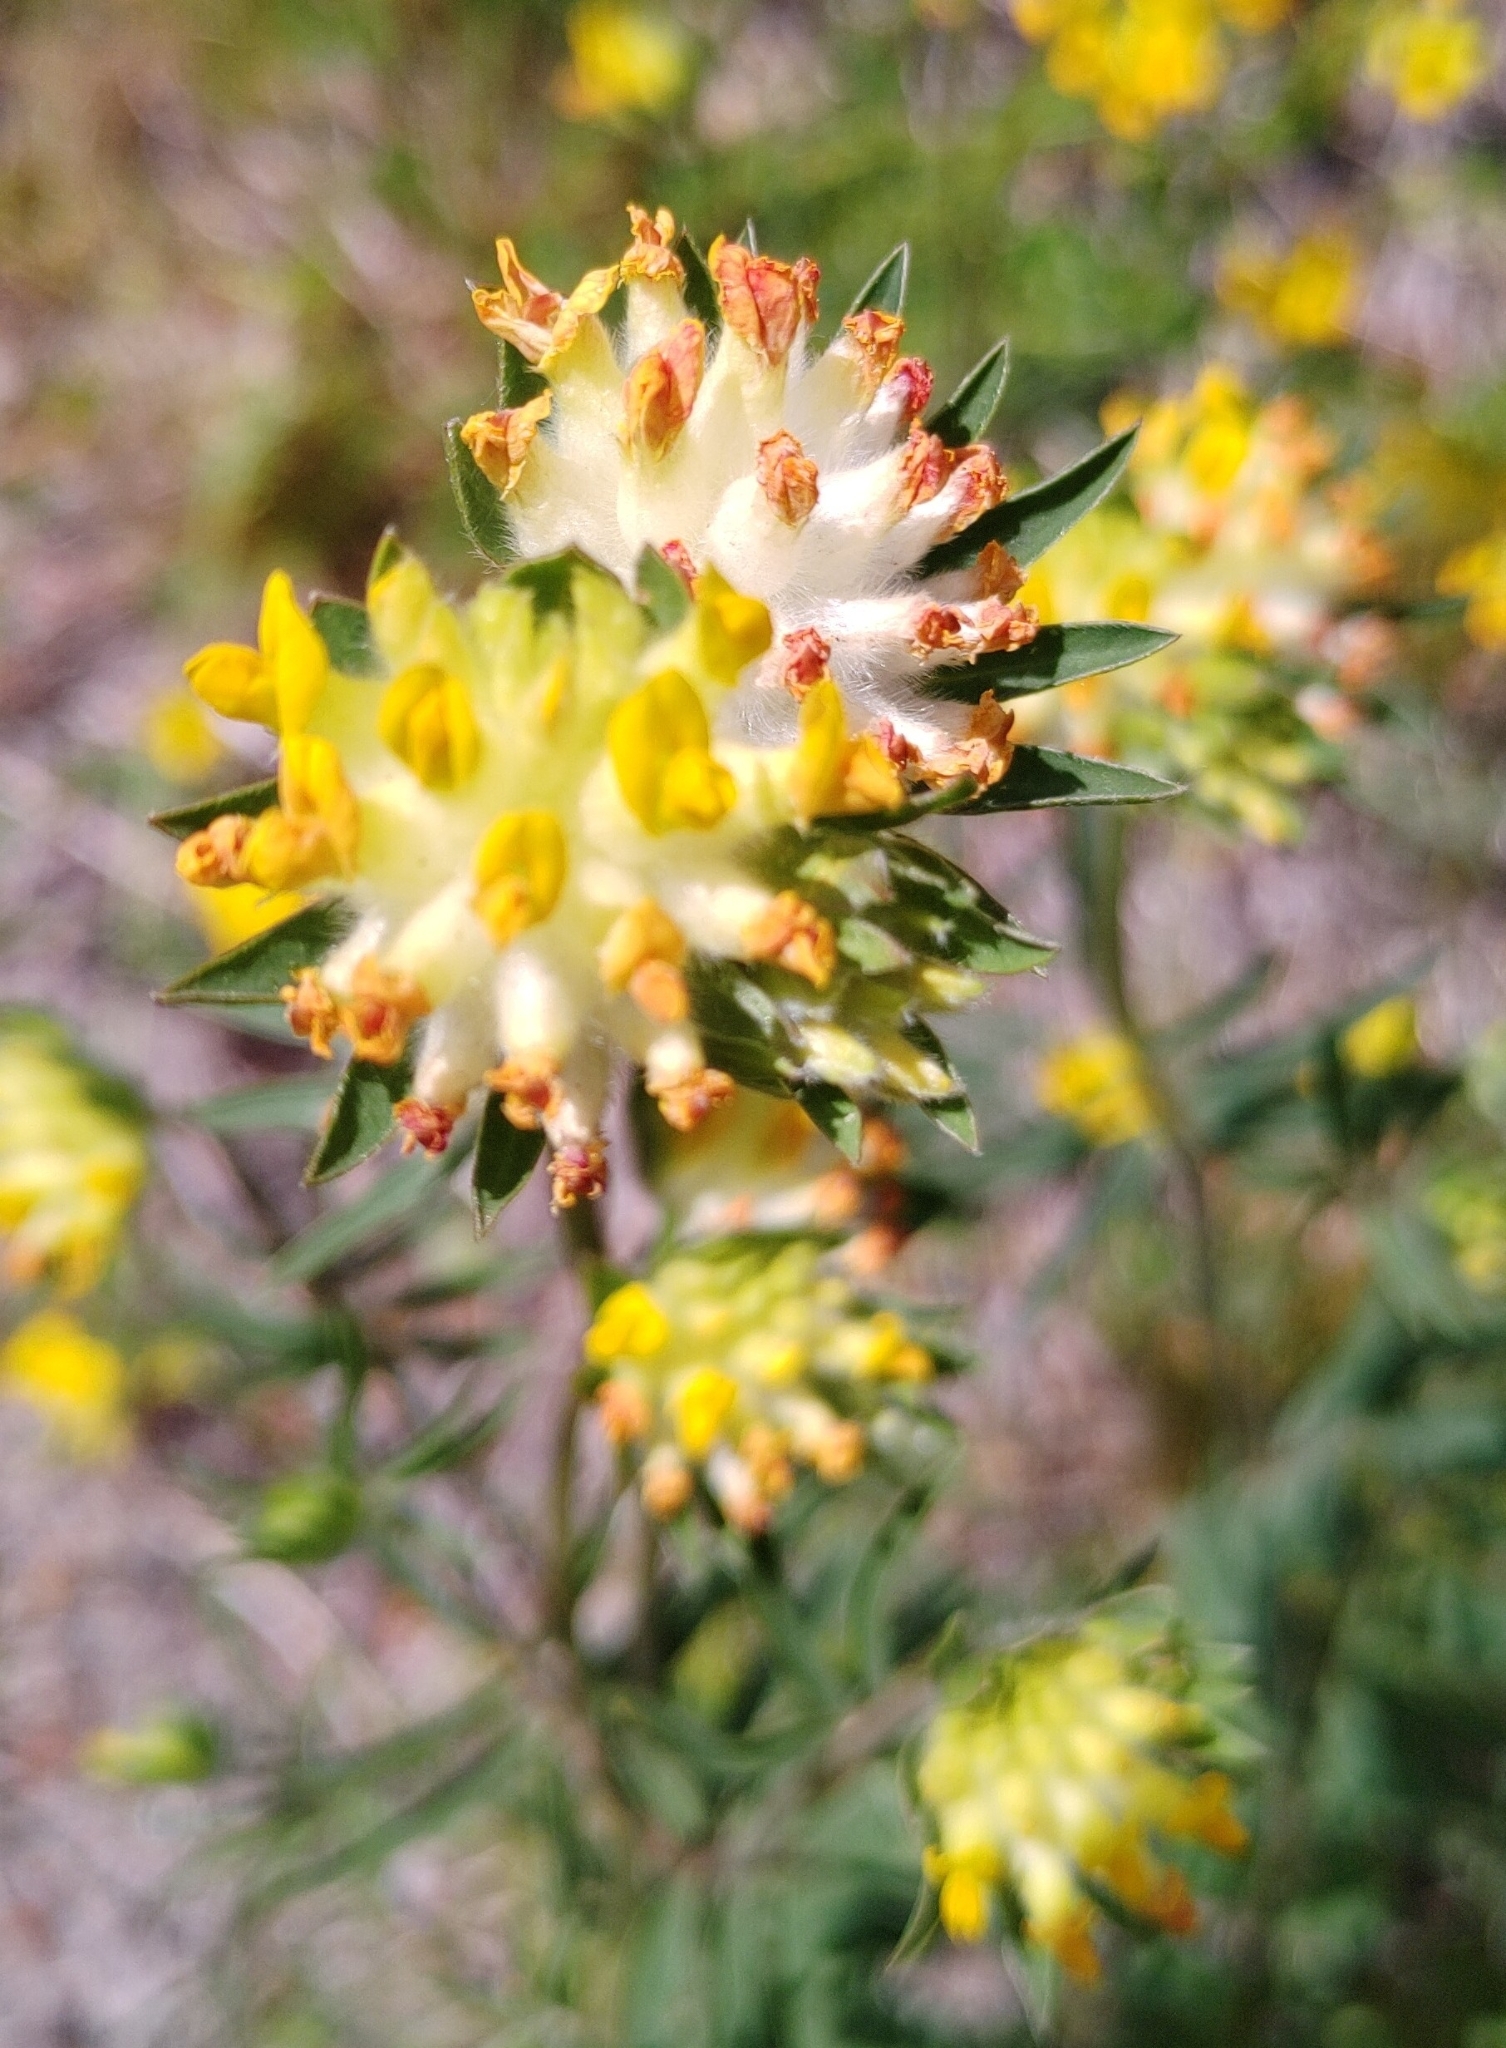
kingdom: Plantae
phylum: Tracheophyta
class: Magnoliopsida
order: Fabales
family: Fabaceae
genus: Anthyllis
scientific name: Anthyllis vulneraria
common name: Kidney vetch
